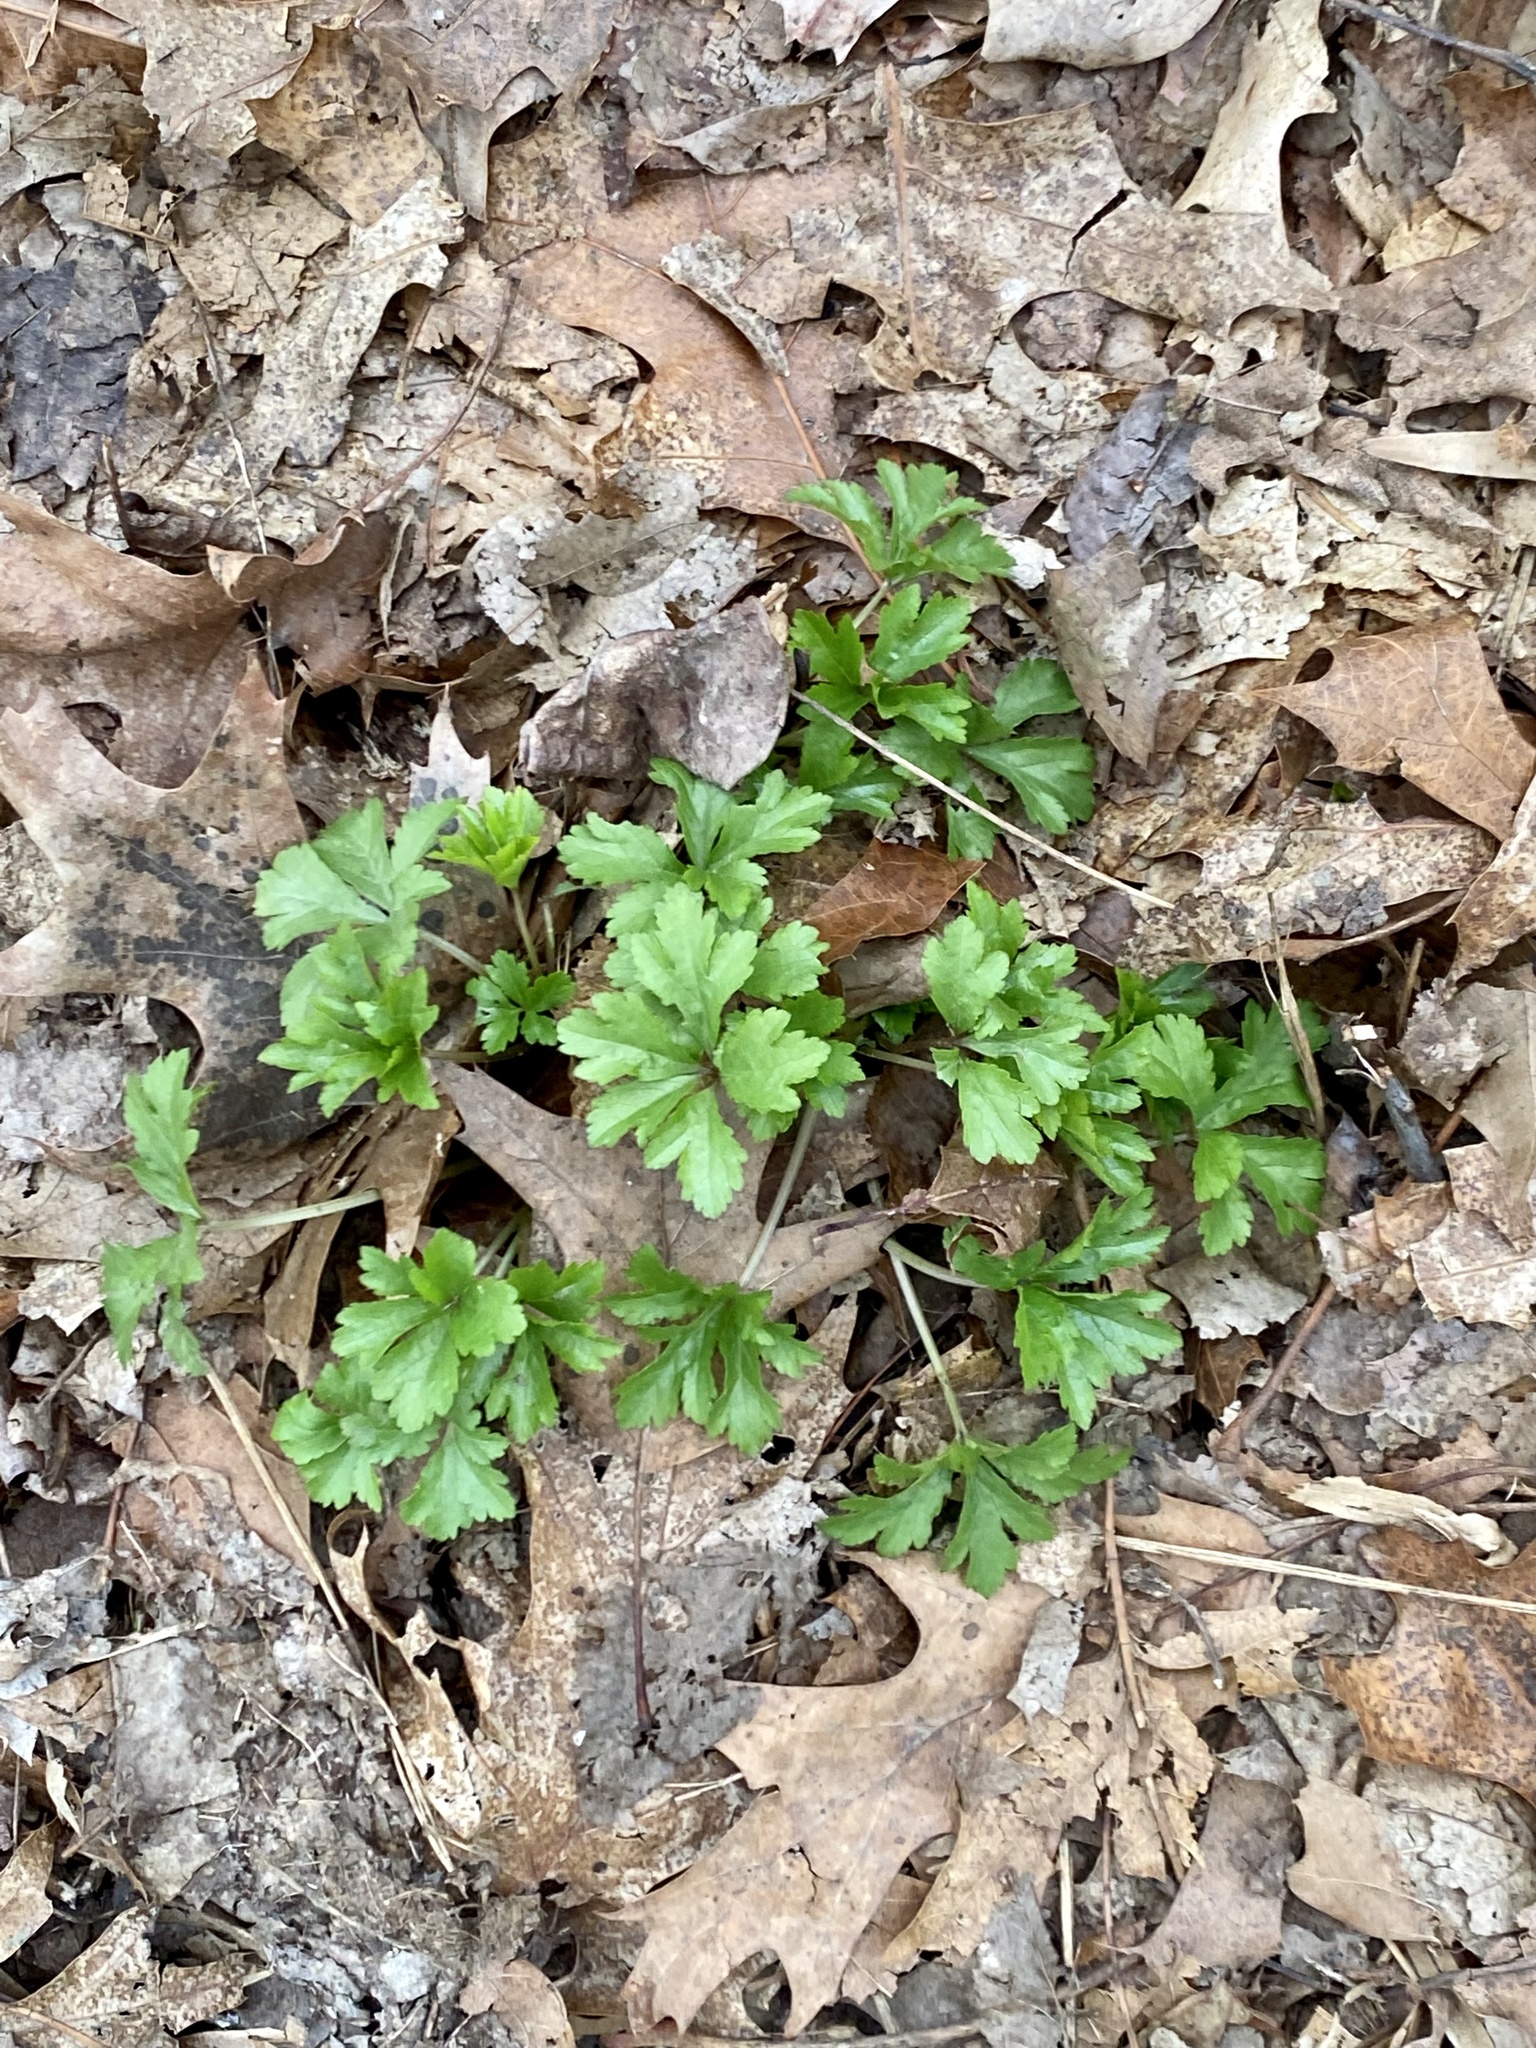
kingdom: Plantae
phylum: Tracheophyta
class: Magnoliopsida
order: Apiales
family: Apiaceae
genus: Sanicula
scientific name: Sanicula odorata
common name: Cluster sanicle
